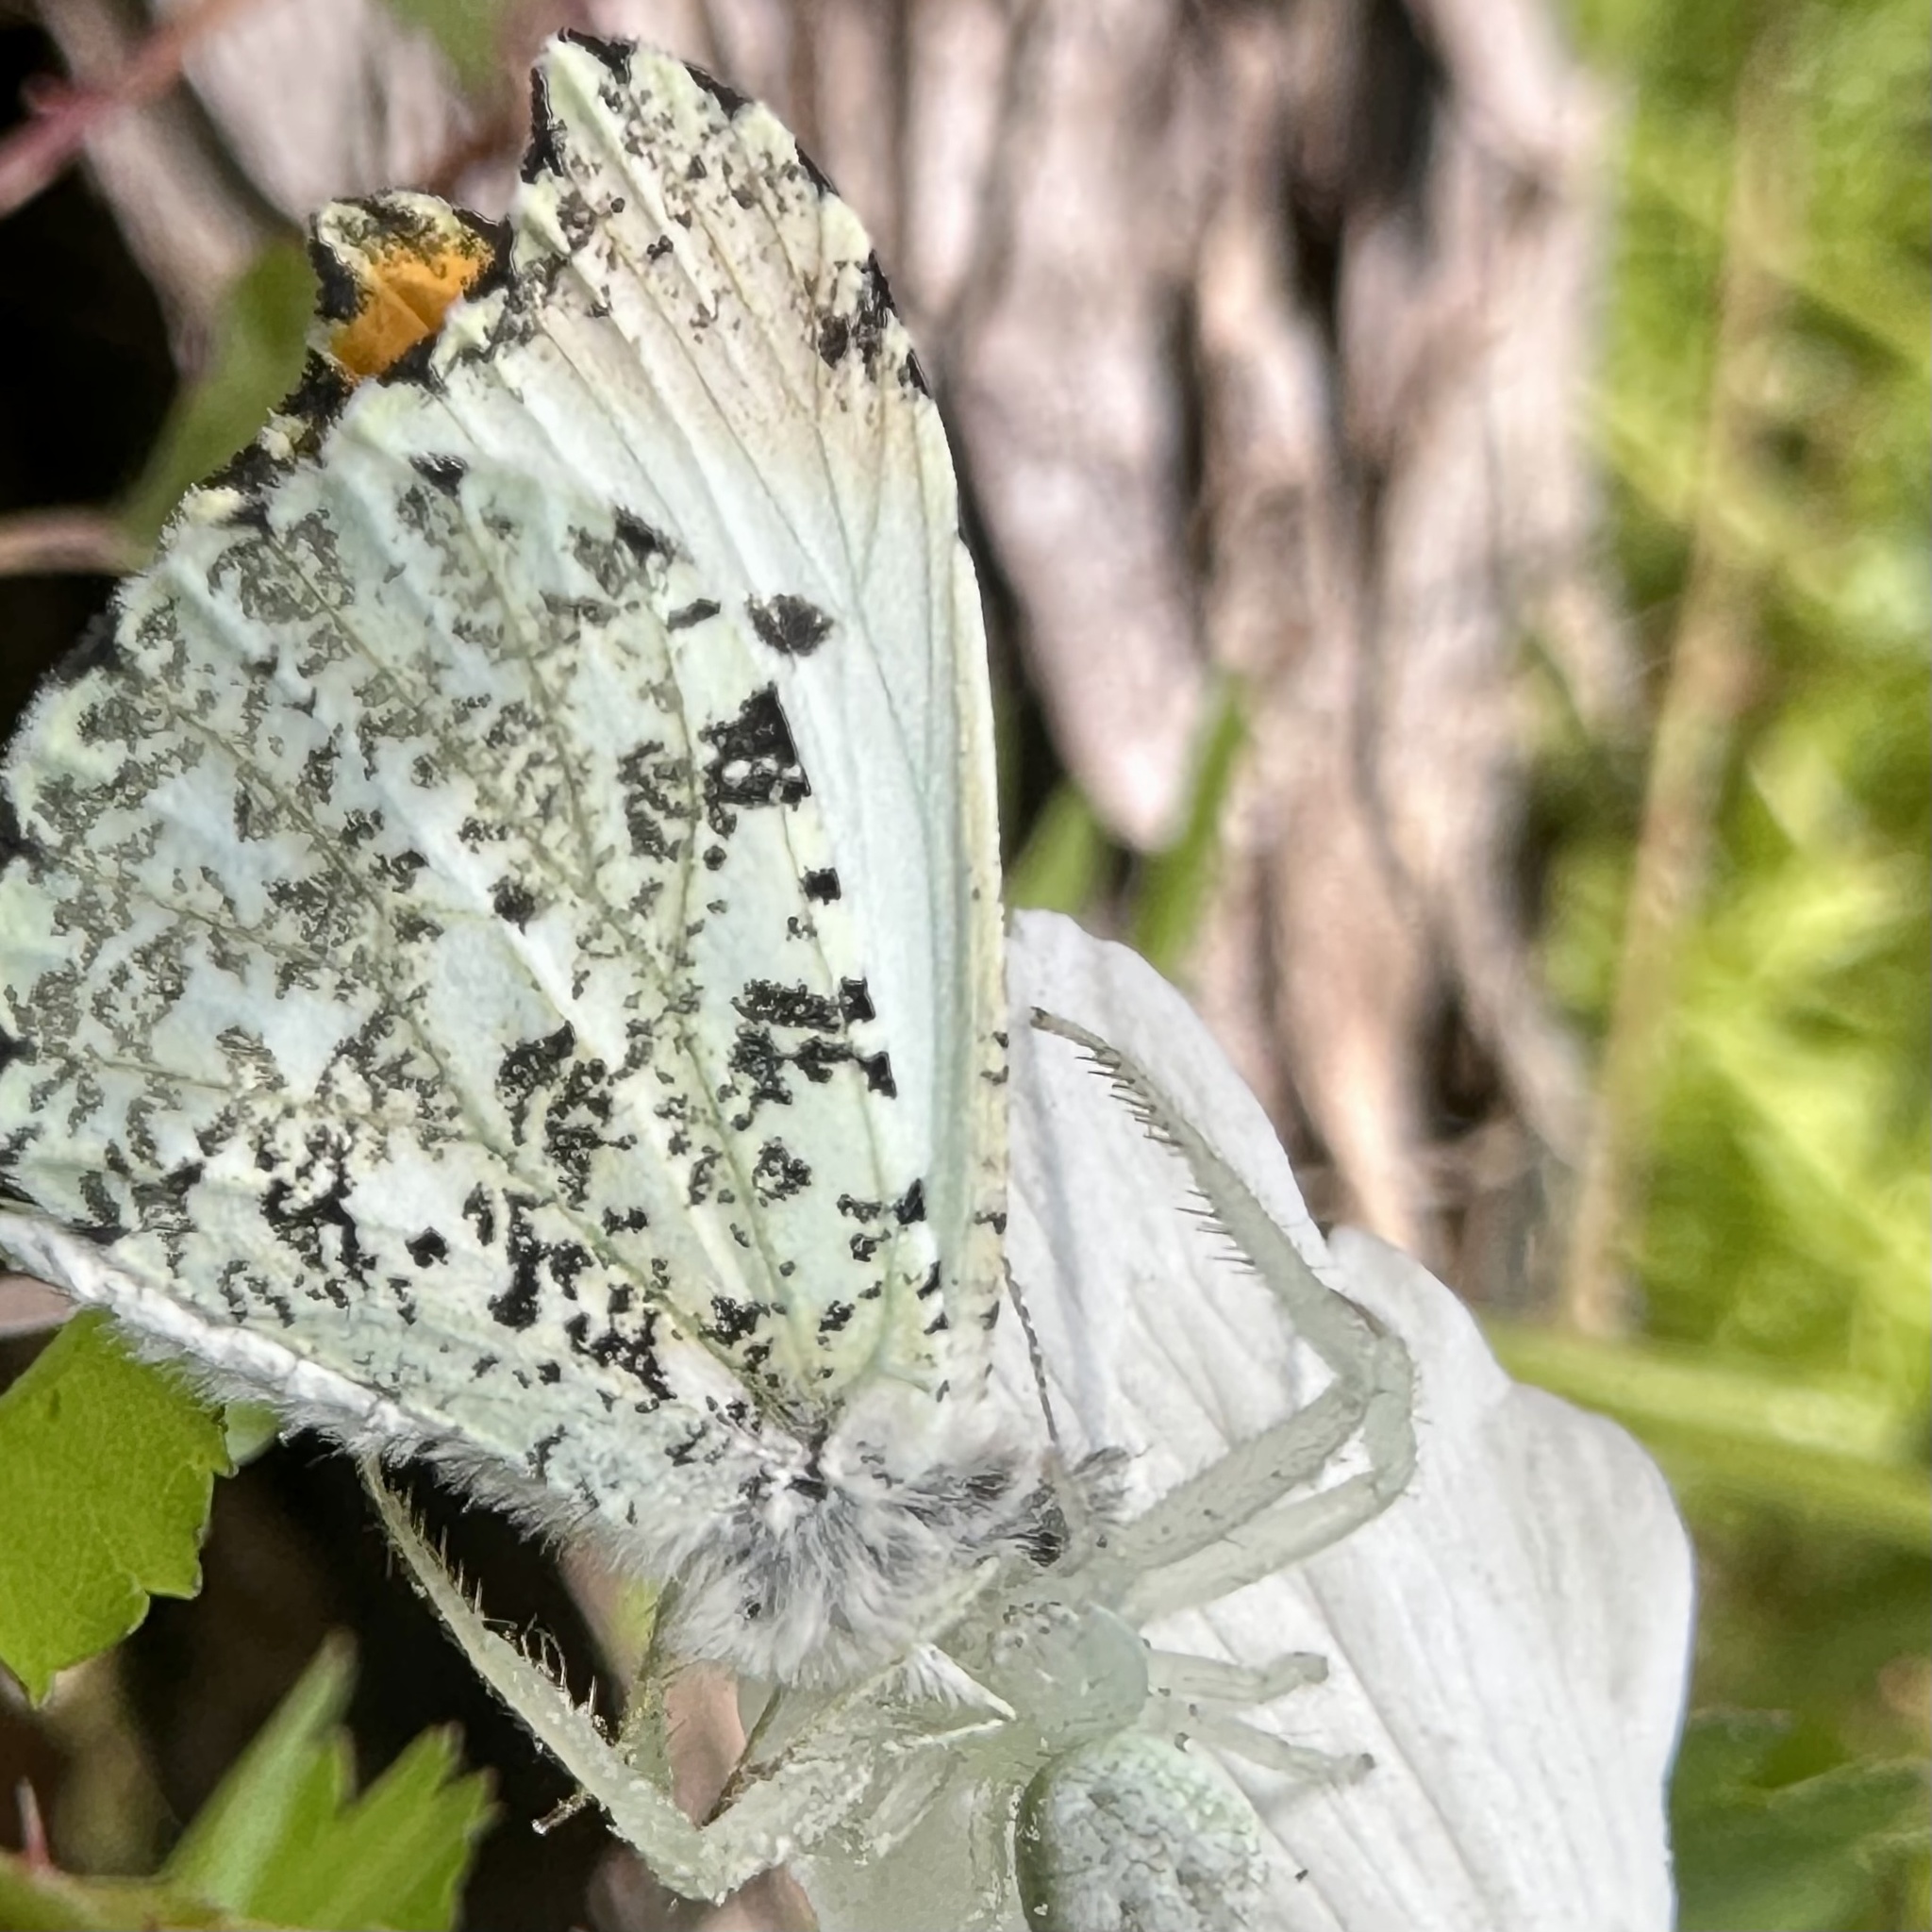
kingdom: Animalia
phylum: Arthropoda
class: Insecta
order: Lepidoptera
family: Pieridae
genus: Anthocharis
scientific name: Anthocharis midea
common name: Falcate orangetip
